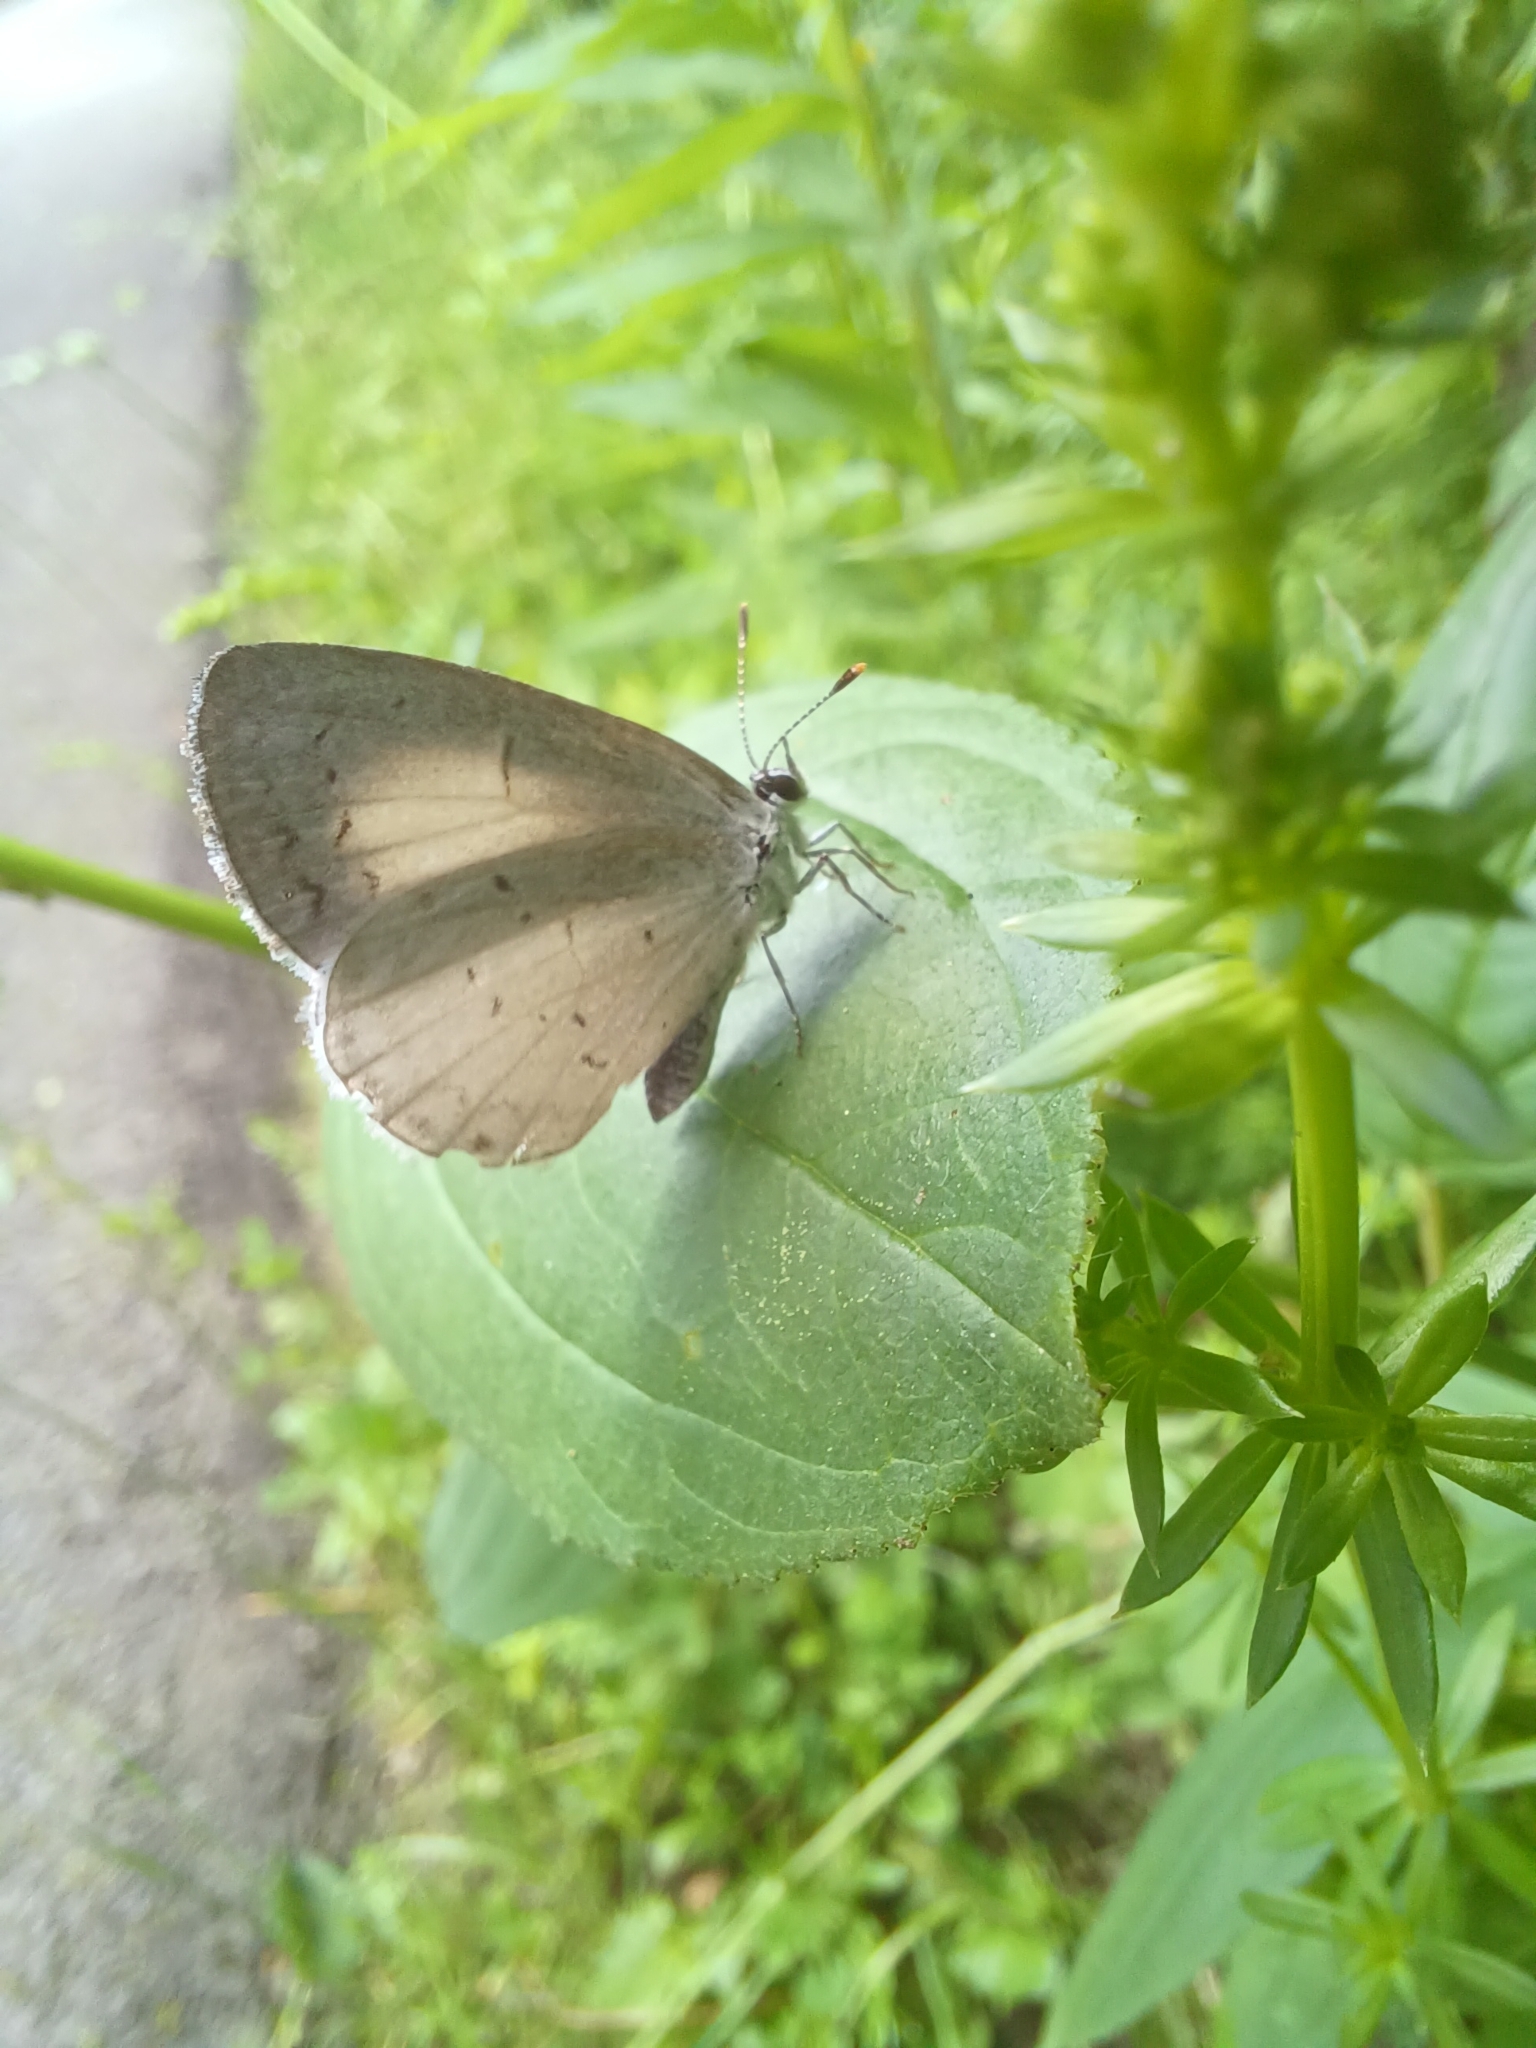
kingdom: Animalia
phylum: Arthropoda
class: Insecta
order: Lepidoptera
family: Lycaenidae
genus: Cyaniris
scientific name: Cyaniris neglecta
